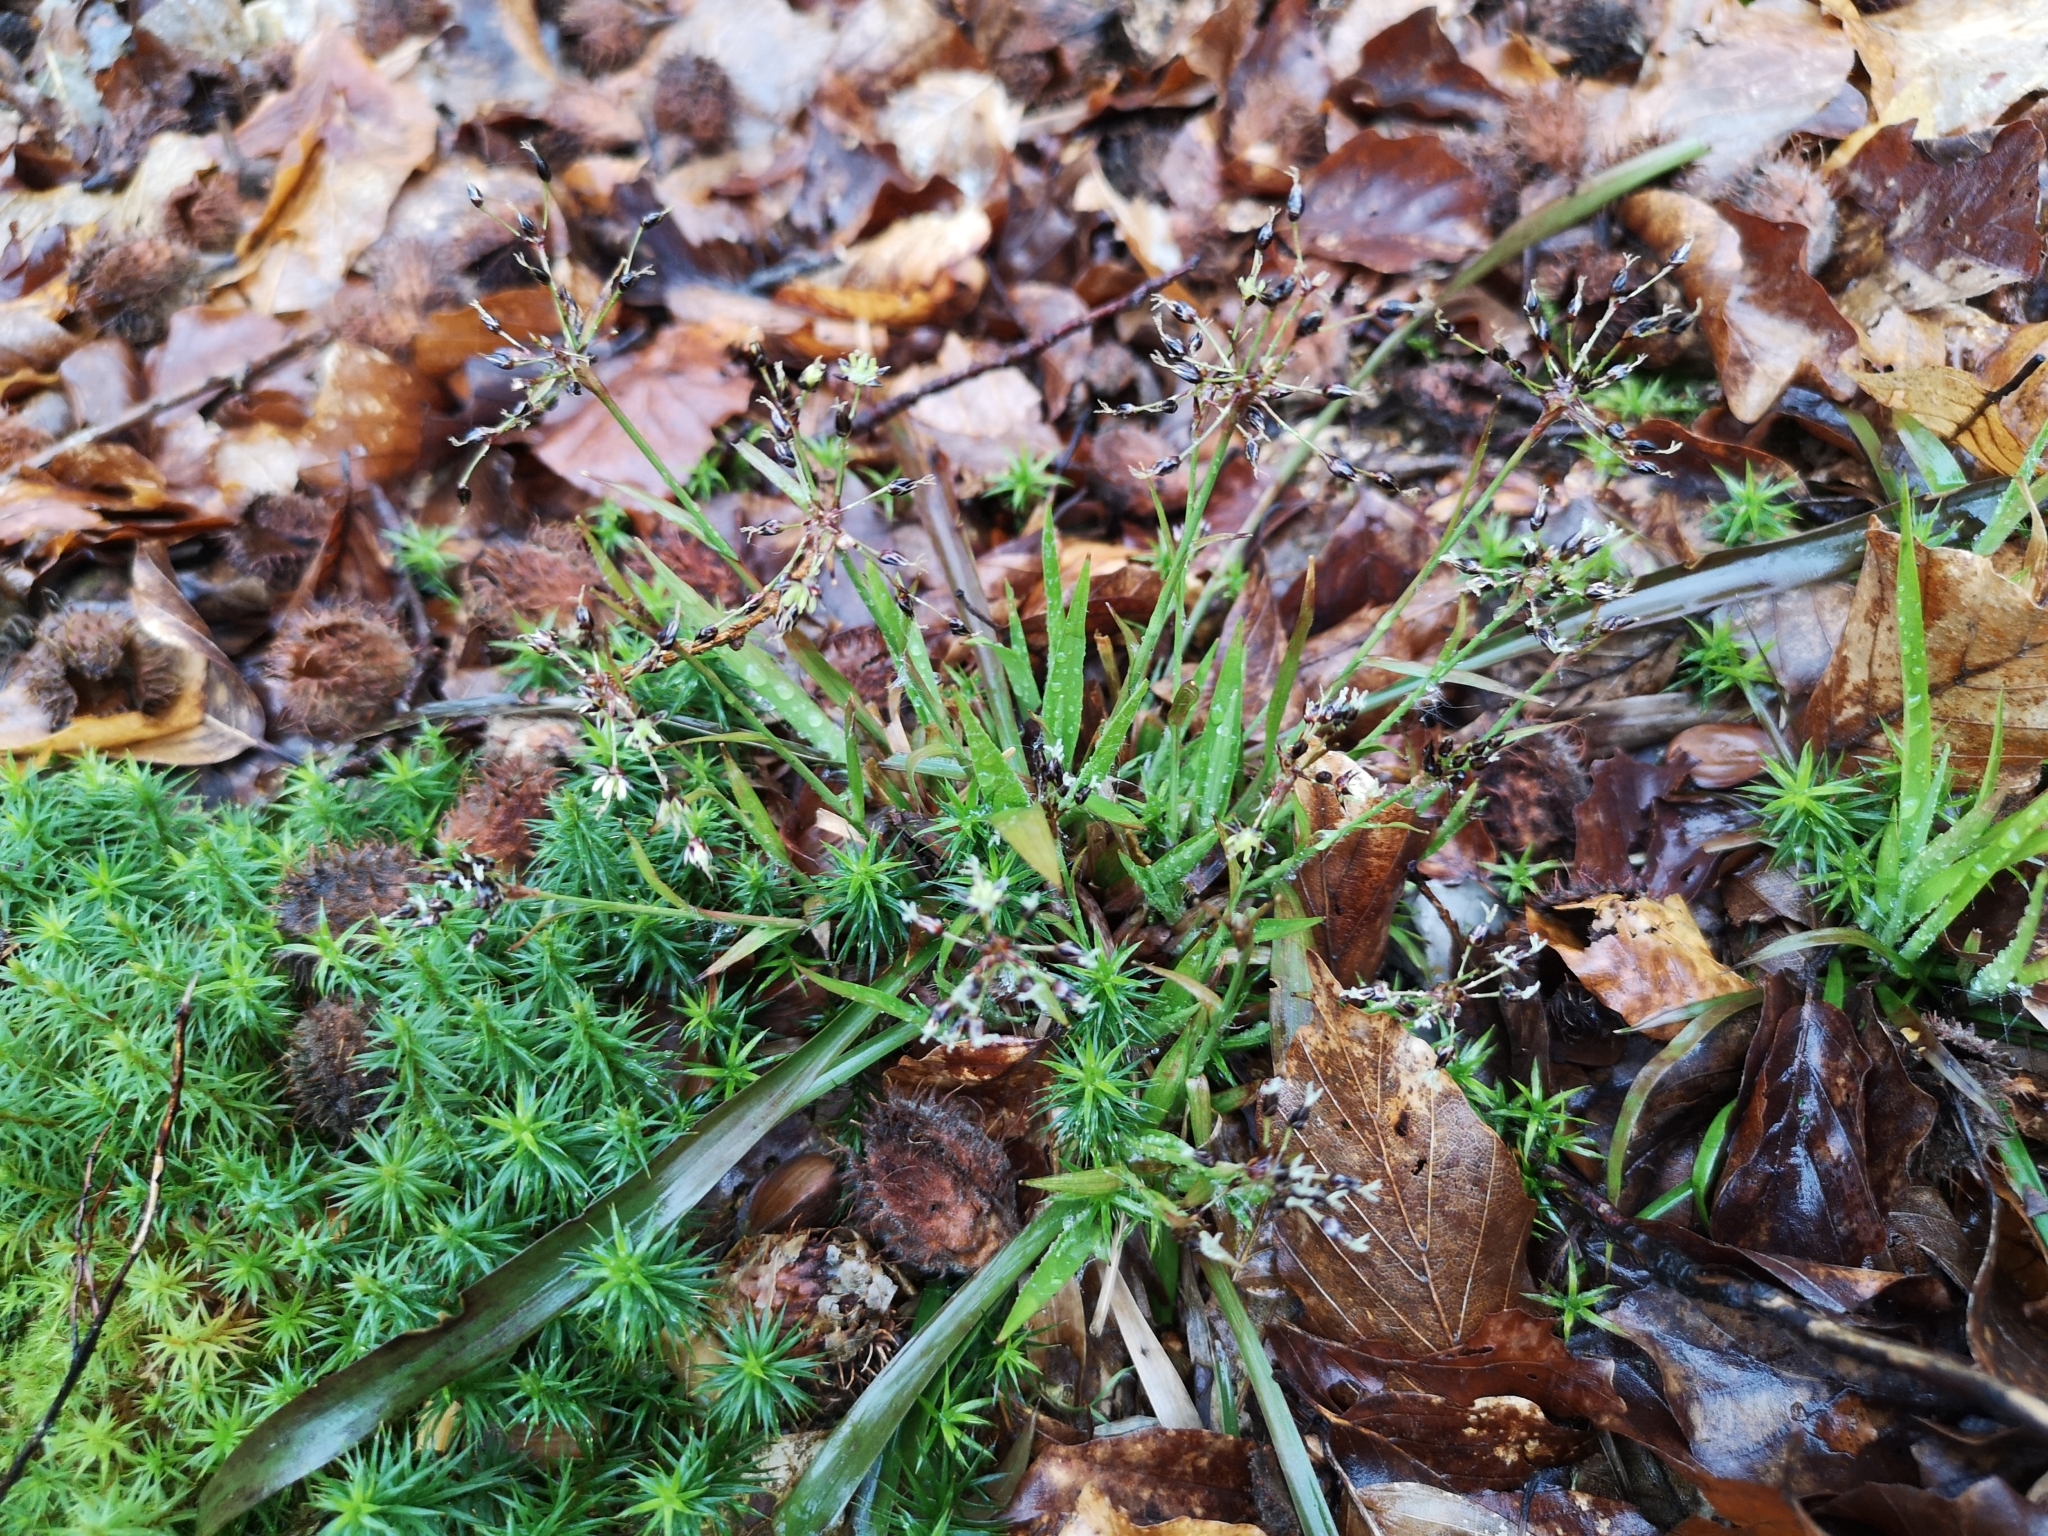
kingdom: Plantae
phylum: Tracheophyta
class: Liliopsida
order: Poales
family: Juncaceae
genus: Luzula
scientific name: Luzula pilosa
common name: Hairy wood-rush
